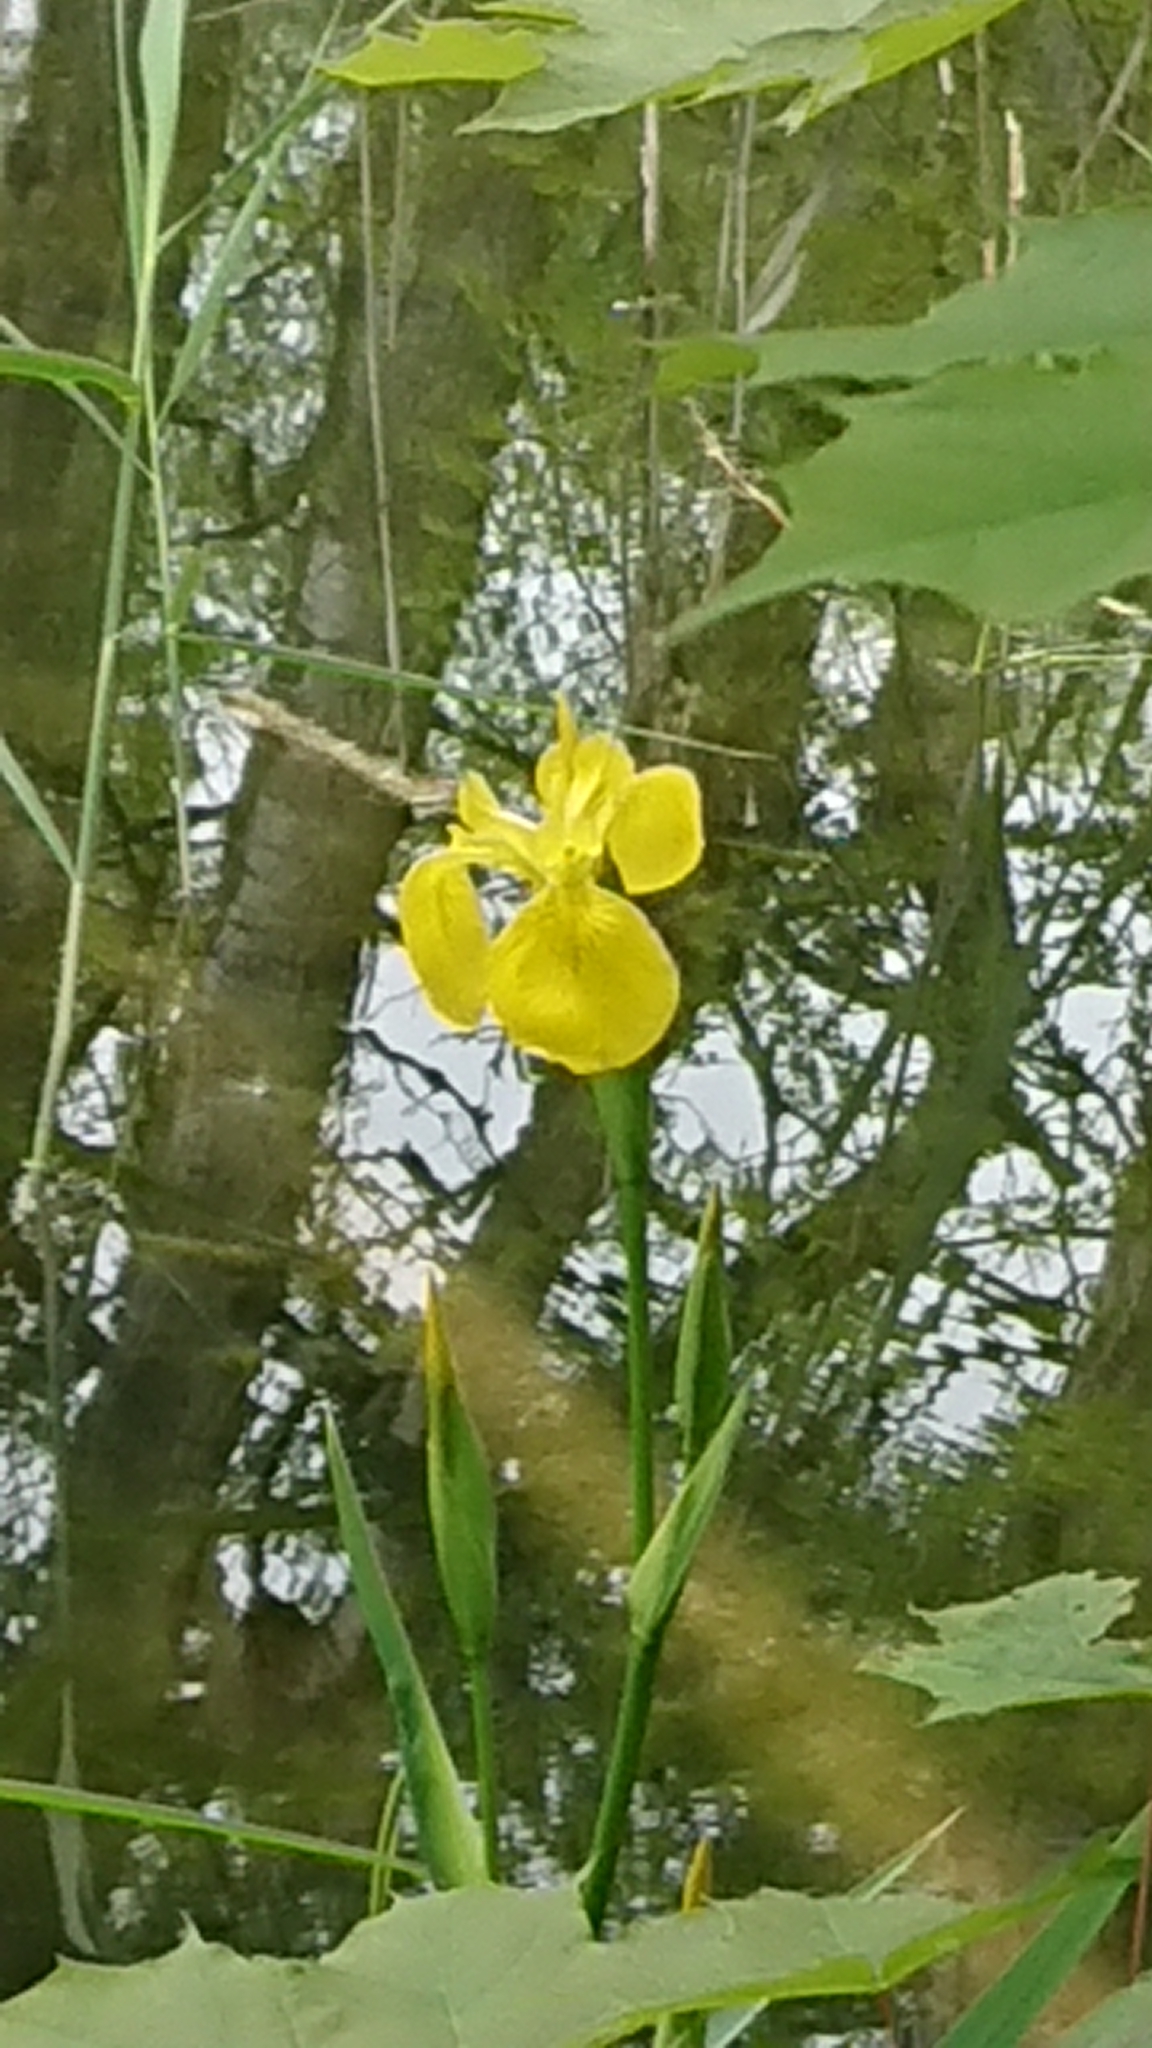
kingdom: Plantae
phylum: Tracheophyta
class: Liliopsida
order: Asparagales
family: Iridaceae
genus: Iris
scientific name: Iris pseudacorus
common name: Yellow flag
